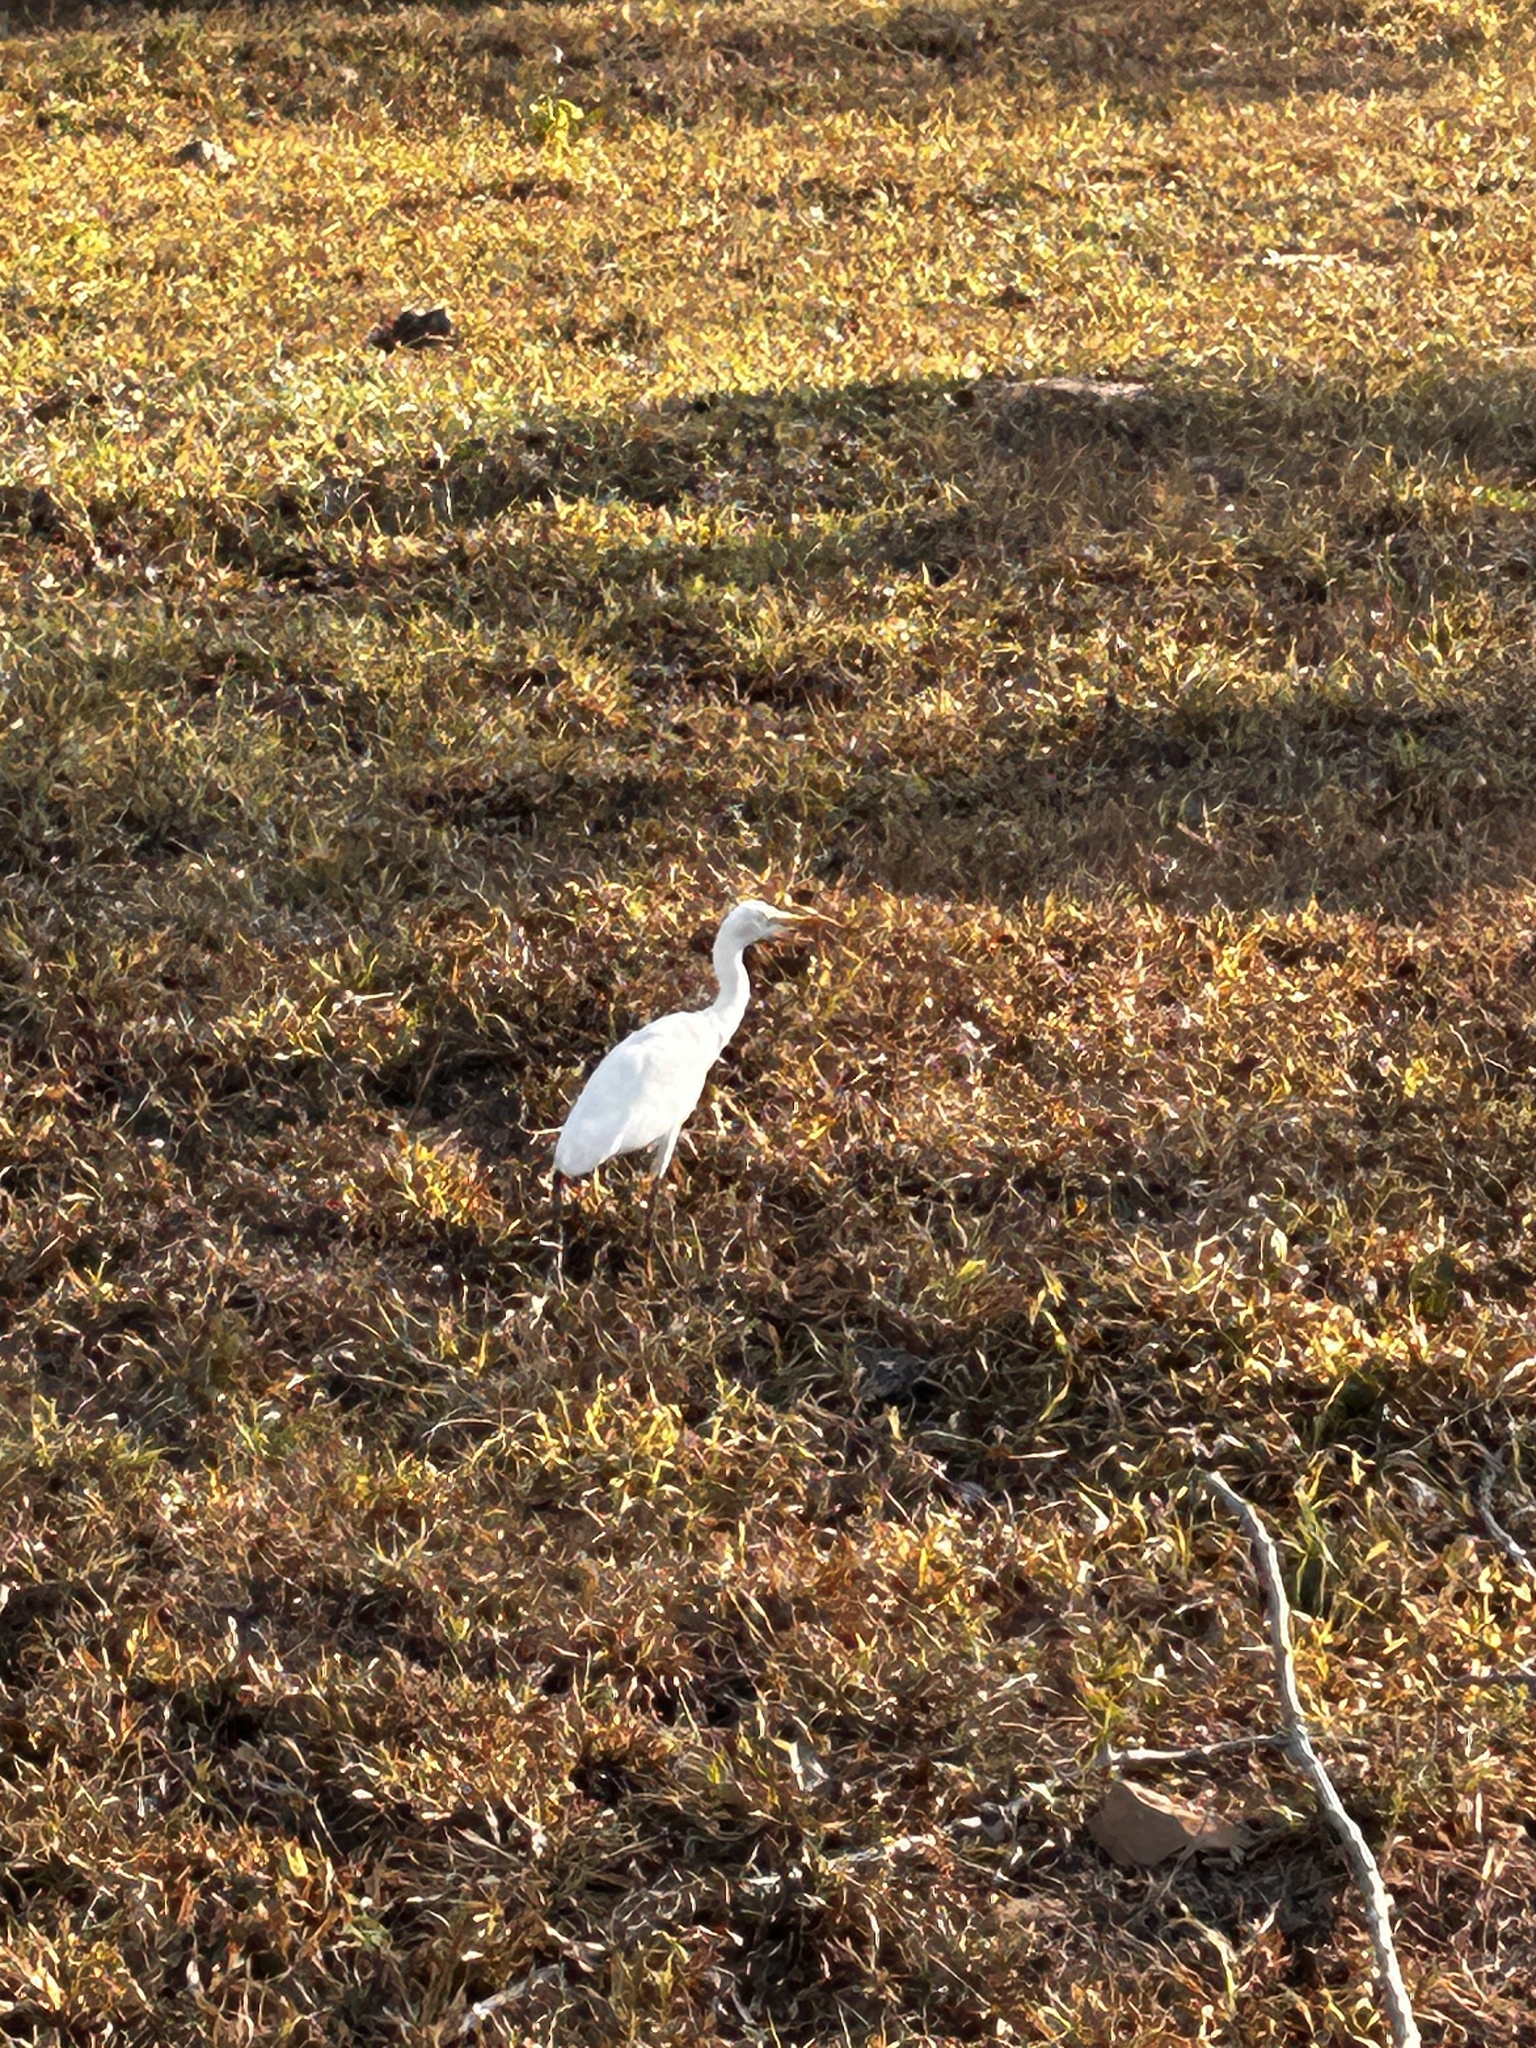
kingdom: Animalia
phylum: Chordata
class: Aves
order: Pelecaniformes
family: Ardeidae
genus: Bubulcus
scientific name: Bubulcus coromandus
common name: Eastern cattle egret
